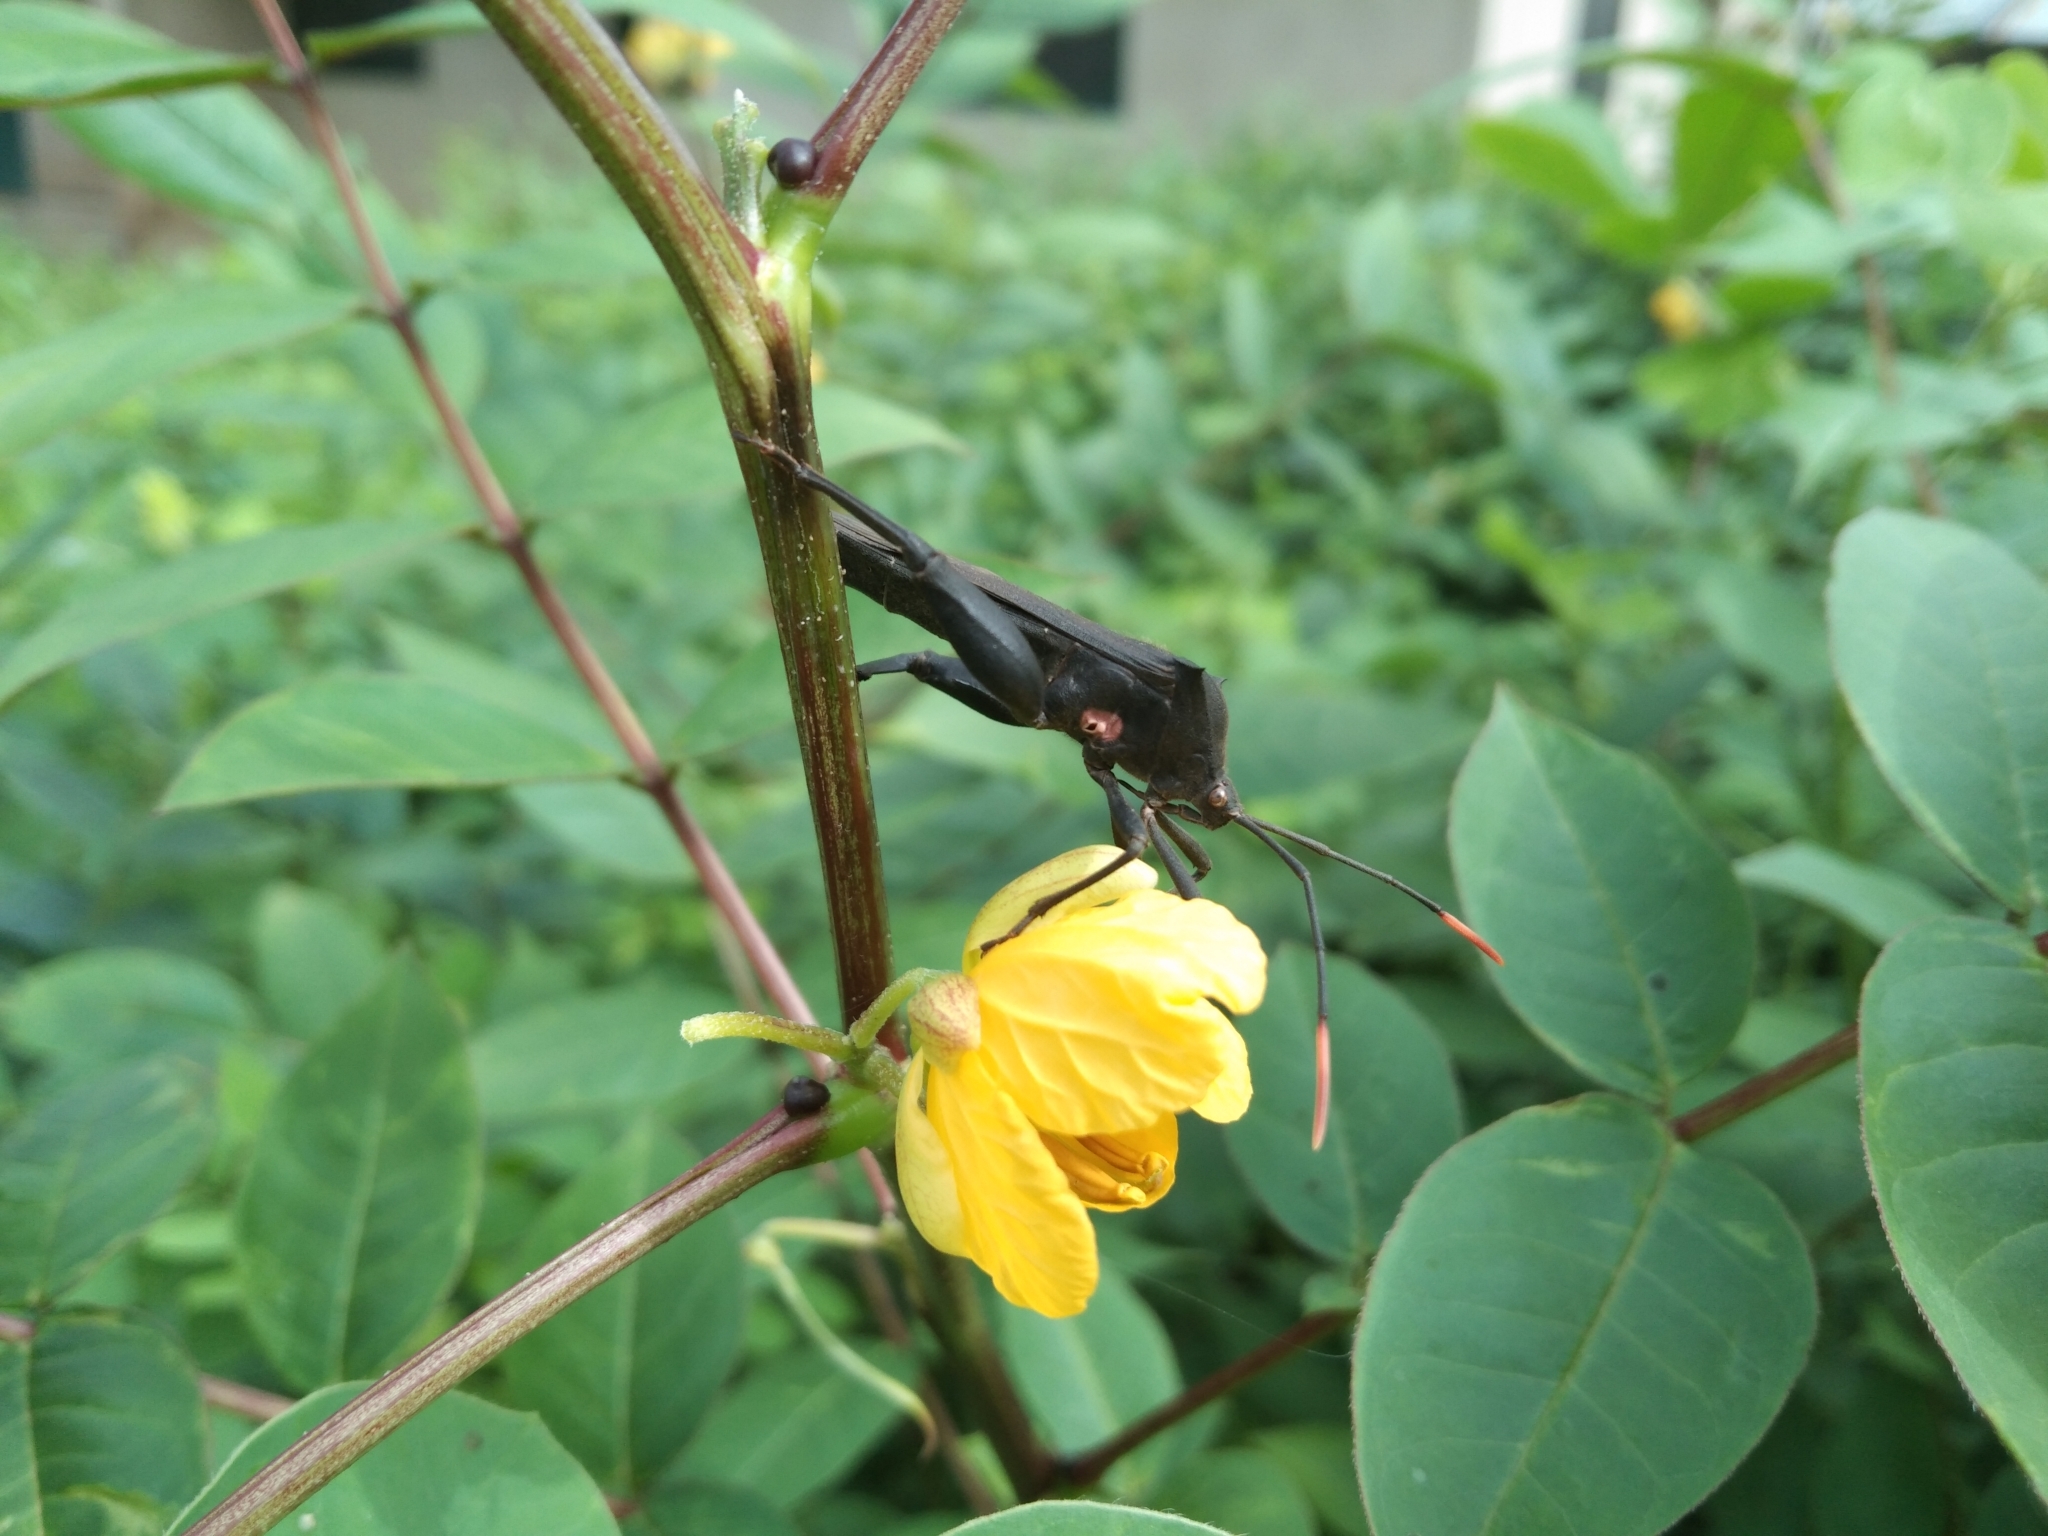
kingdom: Animalia
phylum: Arthropoda
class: Insecta
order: Hemiptera
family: Coreidae
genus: Anoplocnemis
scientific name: Anoplocnemis curvipes
